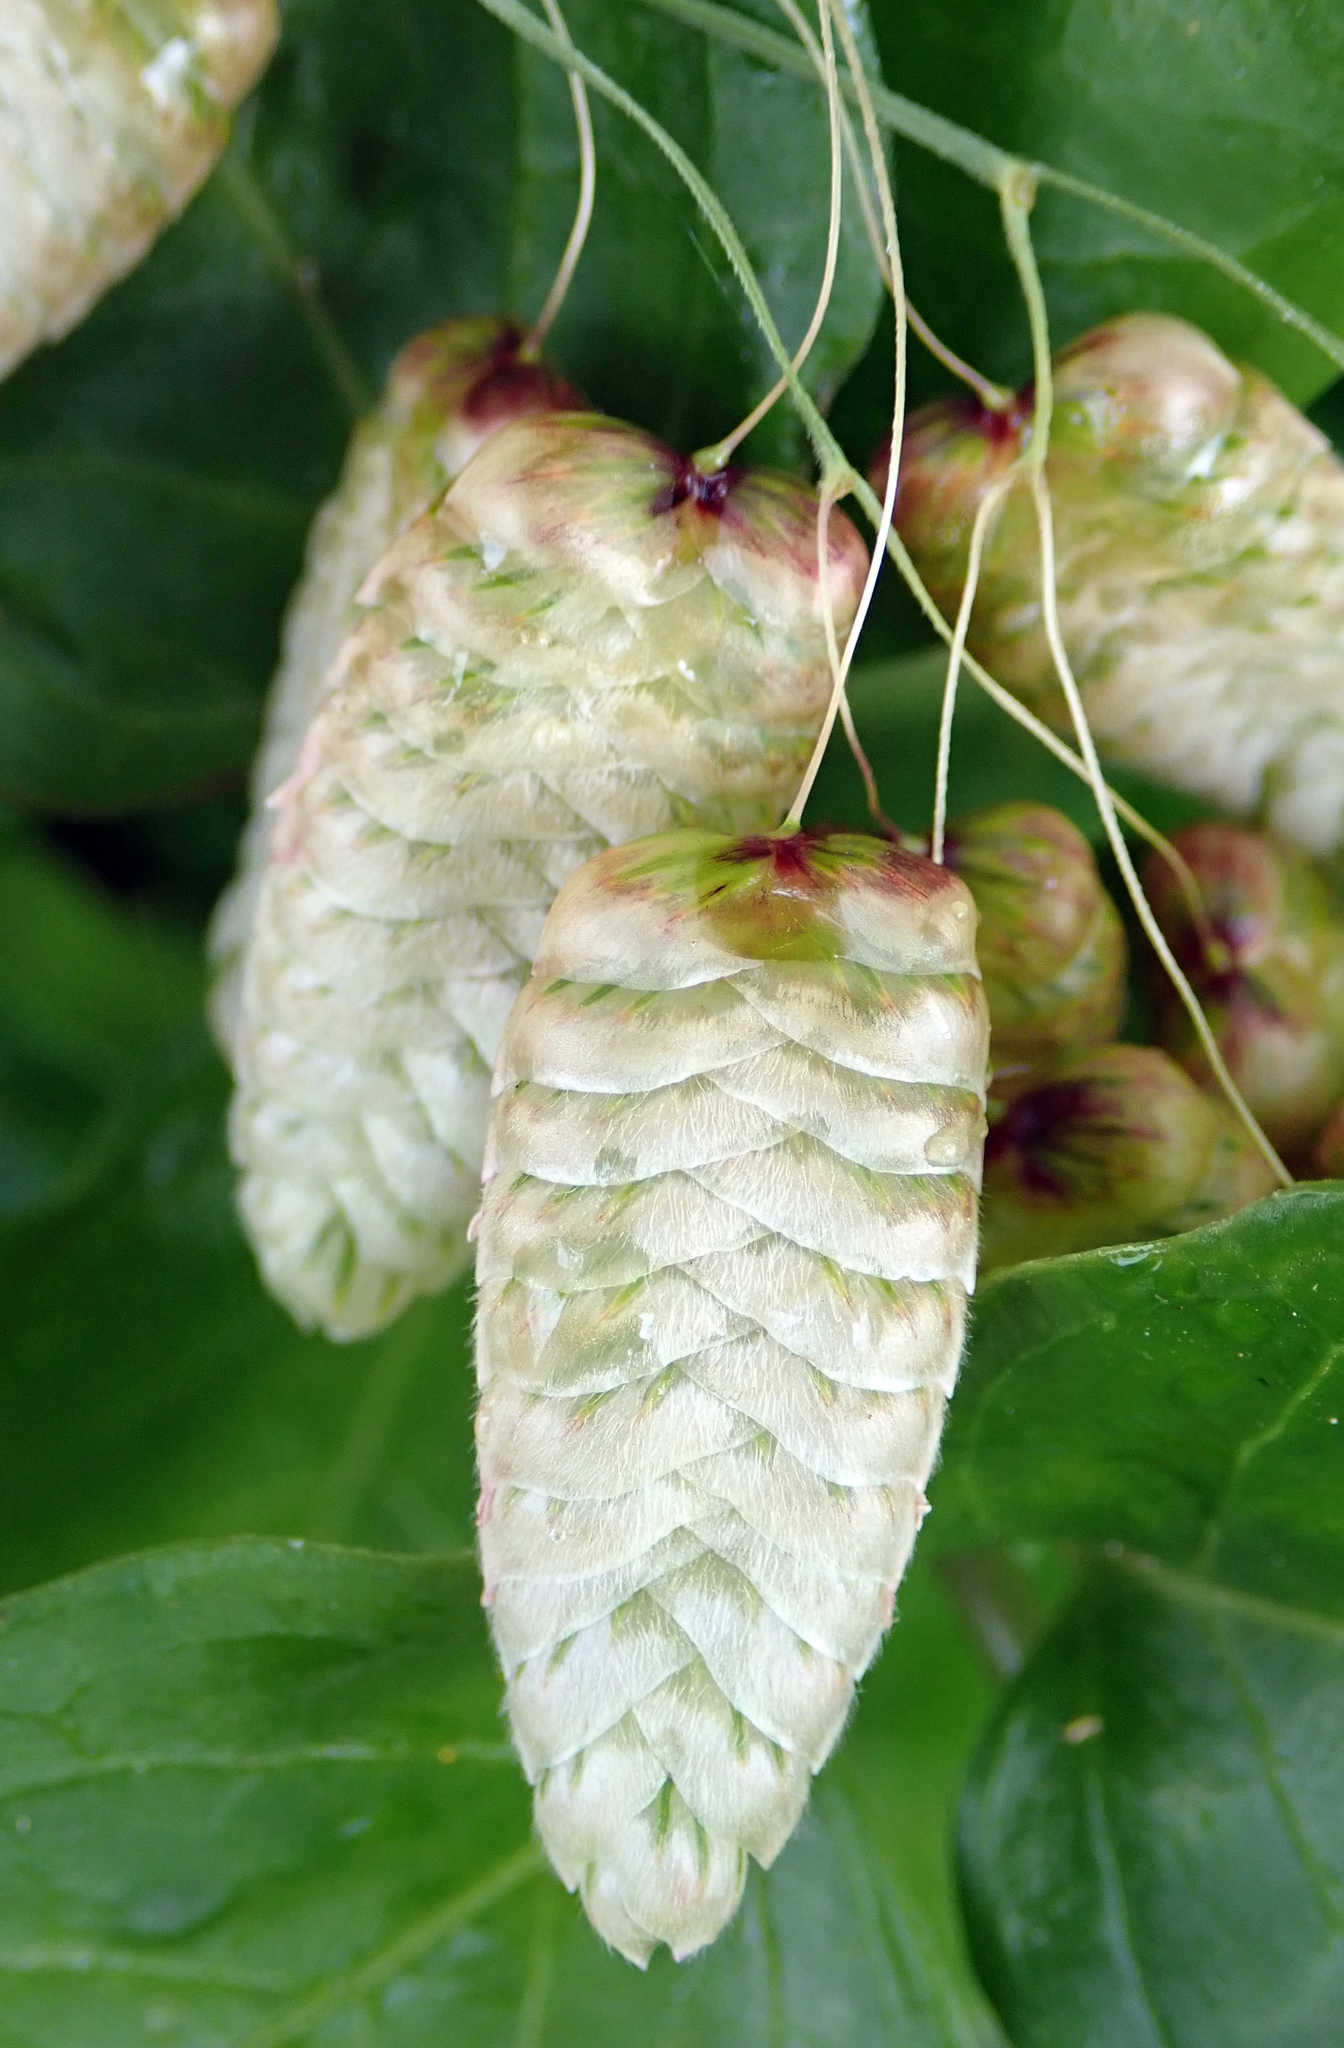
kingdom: Plantae
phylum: Tracheophyta
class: Liliopsida
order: Poales
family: Poaceae
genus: Briza
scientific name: Briza maxima
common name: Big quakinggrass
